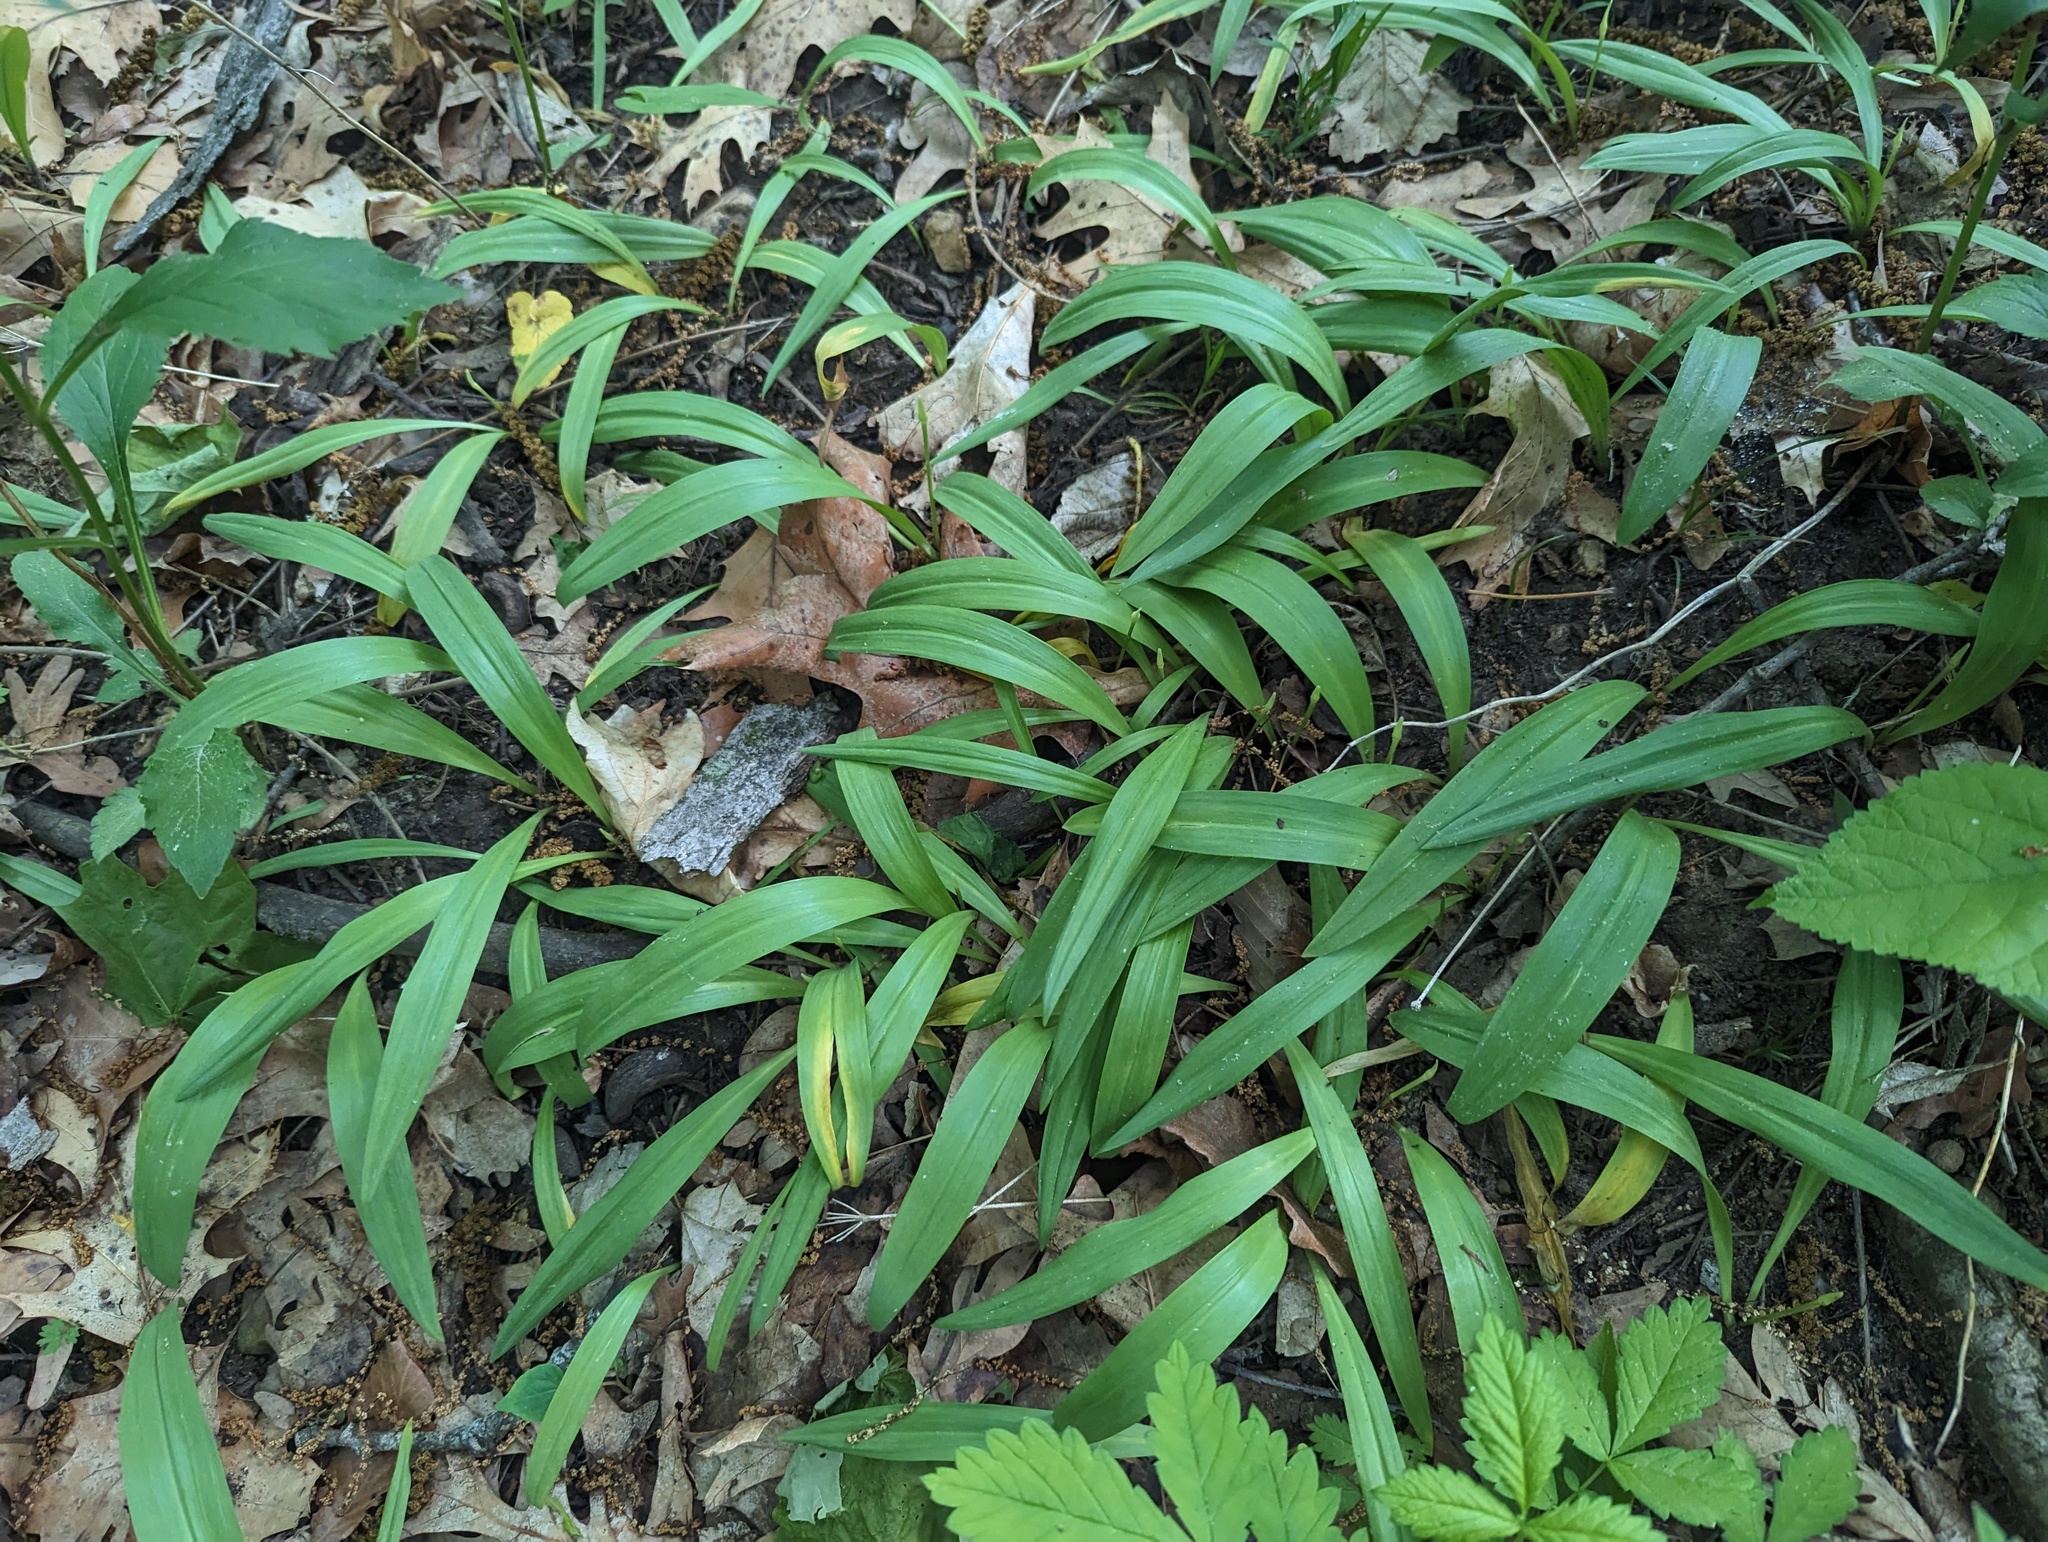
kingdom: Plantae
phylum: Tracheophyta
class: Liliopsida
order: Asparagales
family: Amaryllidaceae
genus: Allium
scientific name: Allium tricoccum
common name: Ramp
